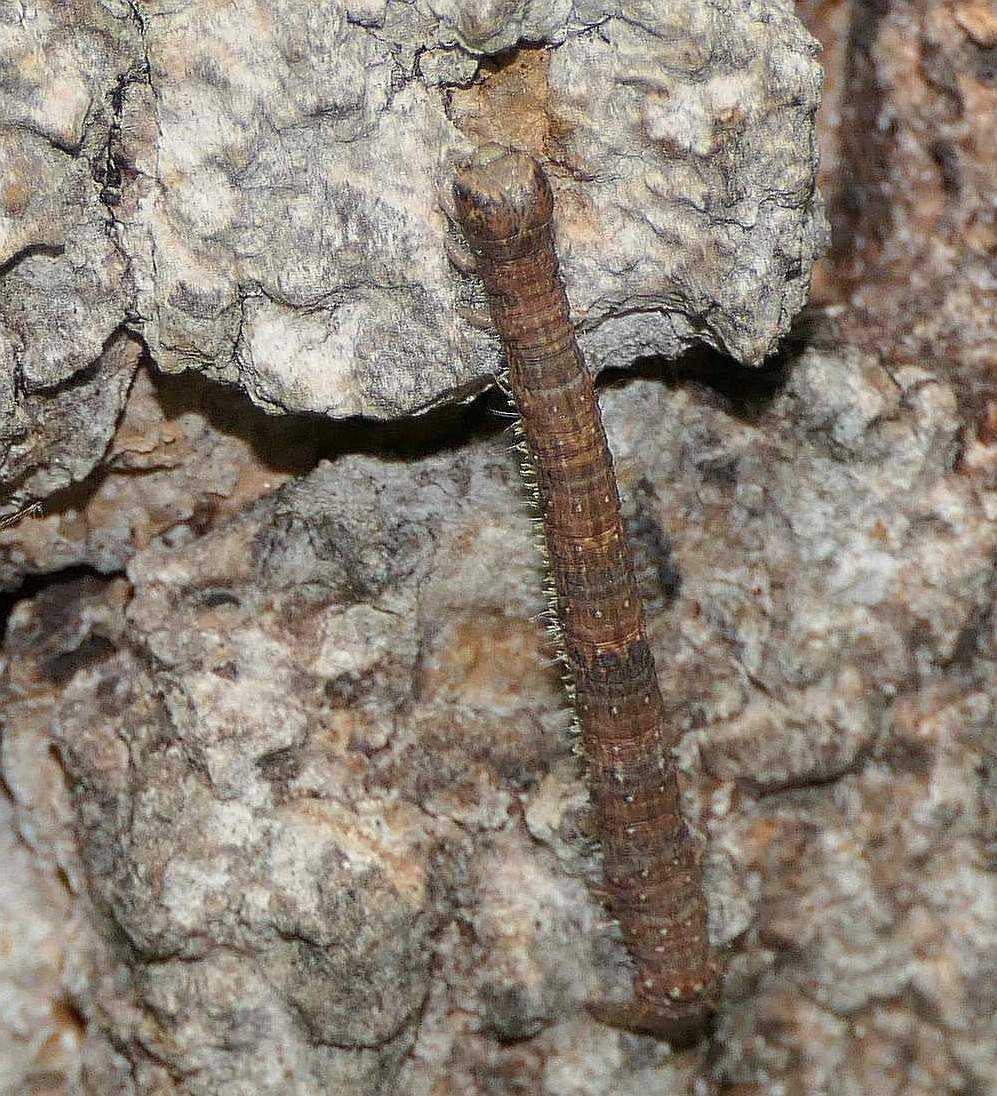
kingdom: Animalia
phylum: Arthropoda
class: Insecta
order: Lepidoptera
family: Geometridae
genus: Campaea
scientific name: Campaea perlata
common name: Fringed looper
